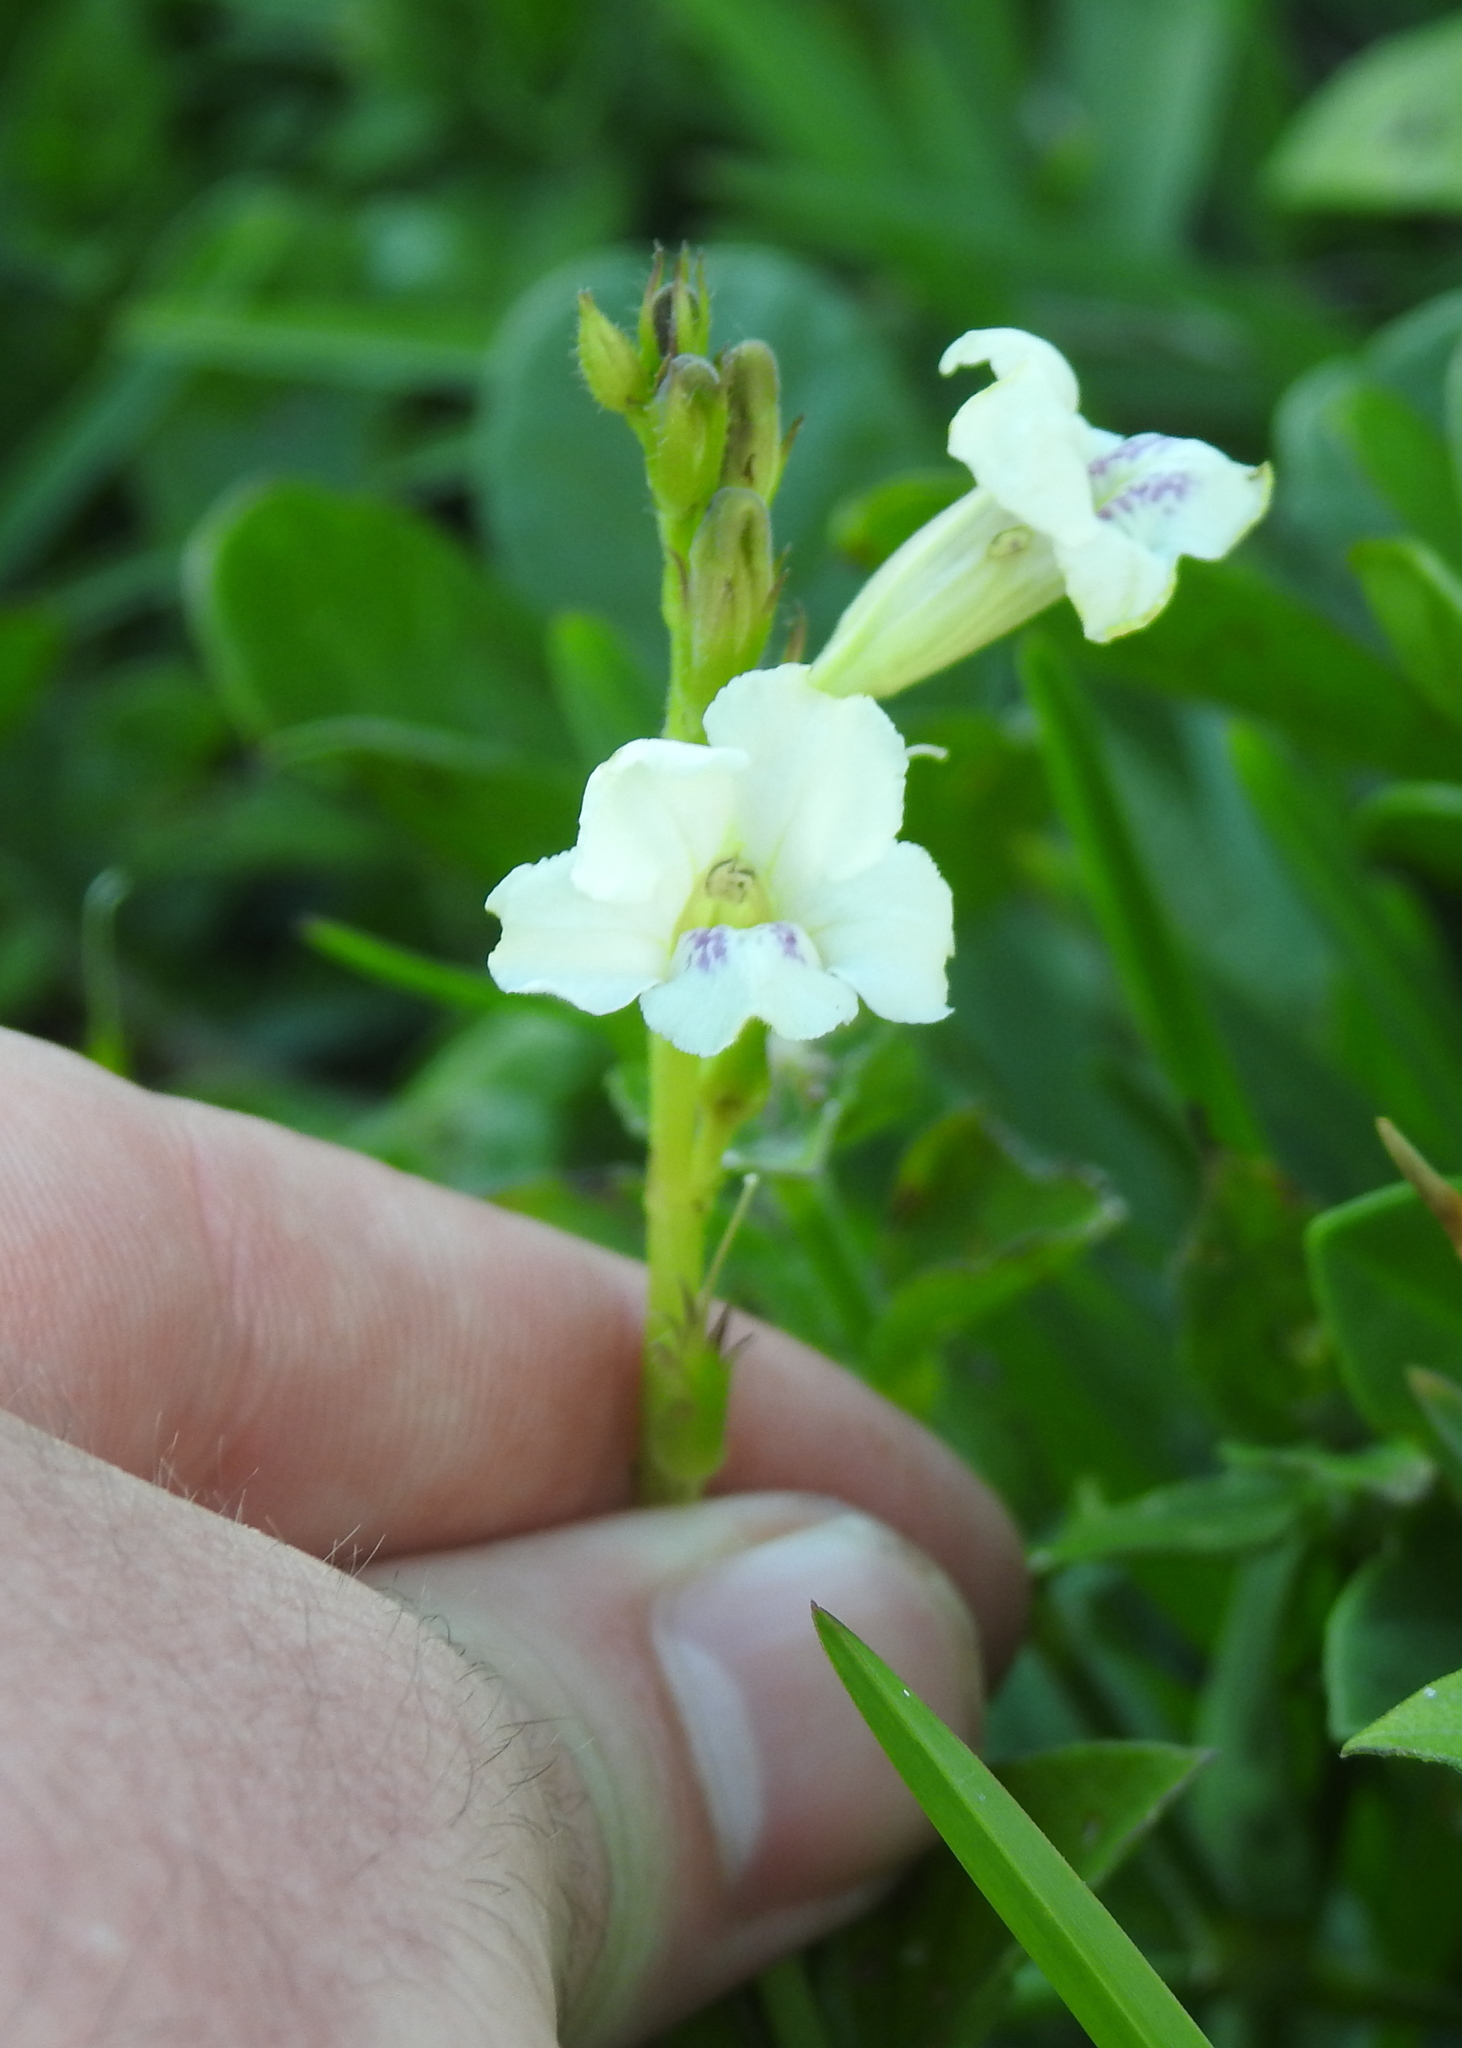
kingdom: Plantae
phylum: Tracheophyta
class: Magnoliopsida
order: Lamiales
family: Acanthaceae
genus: Asystasia
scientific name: Asystasia intrusa
